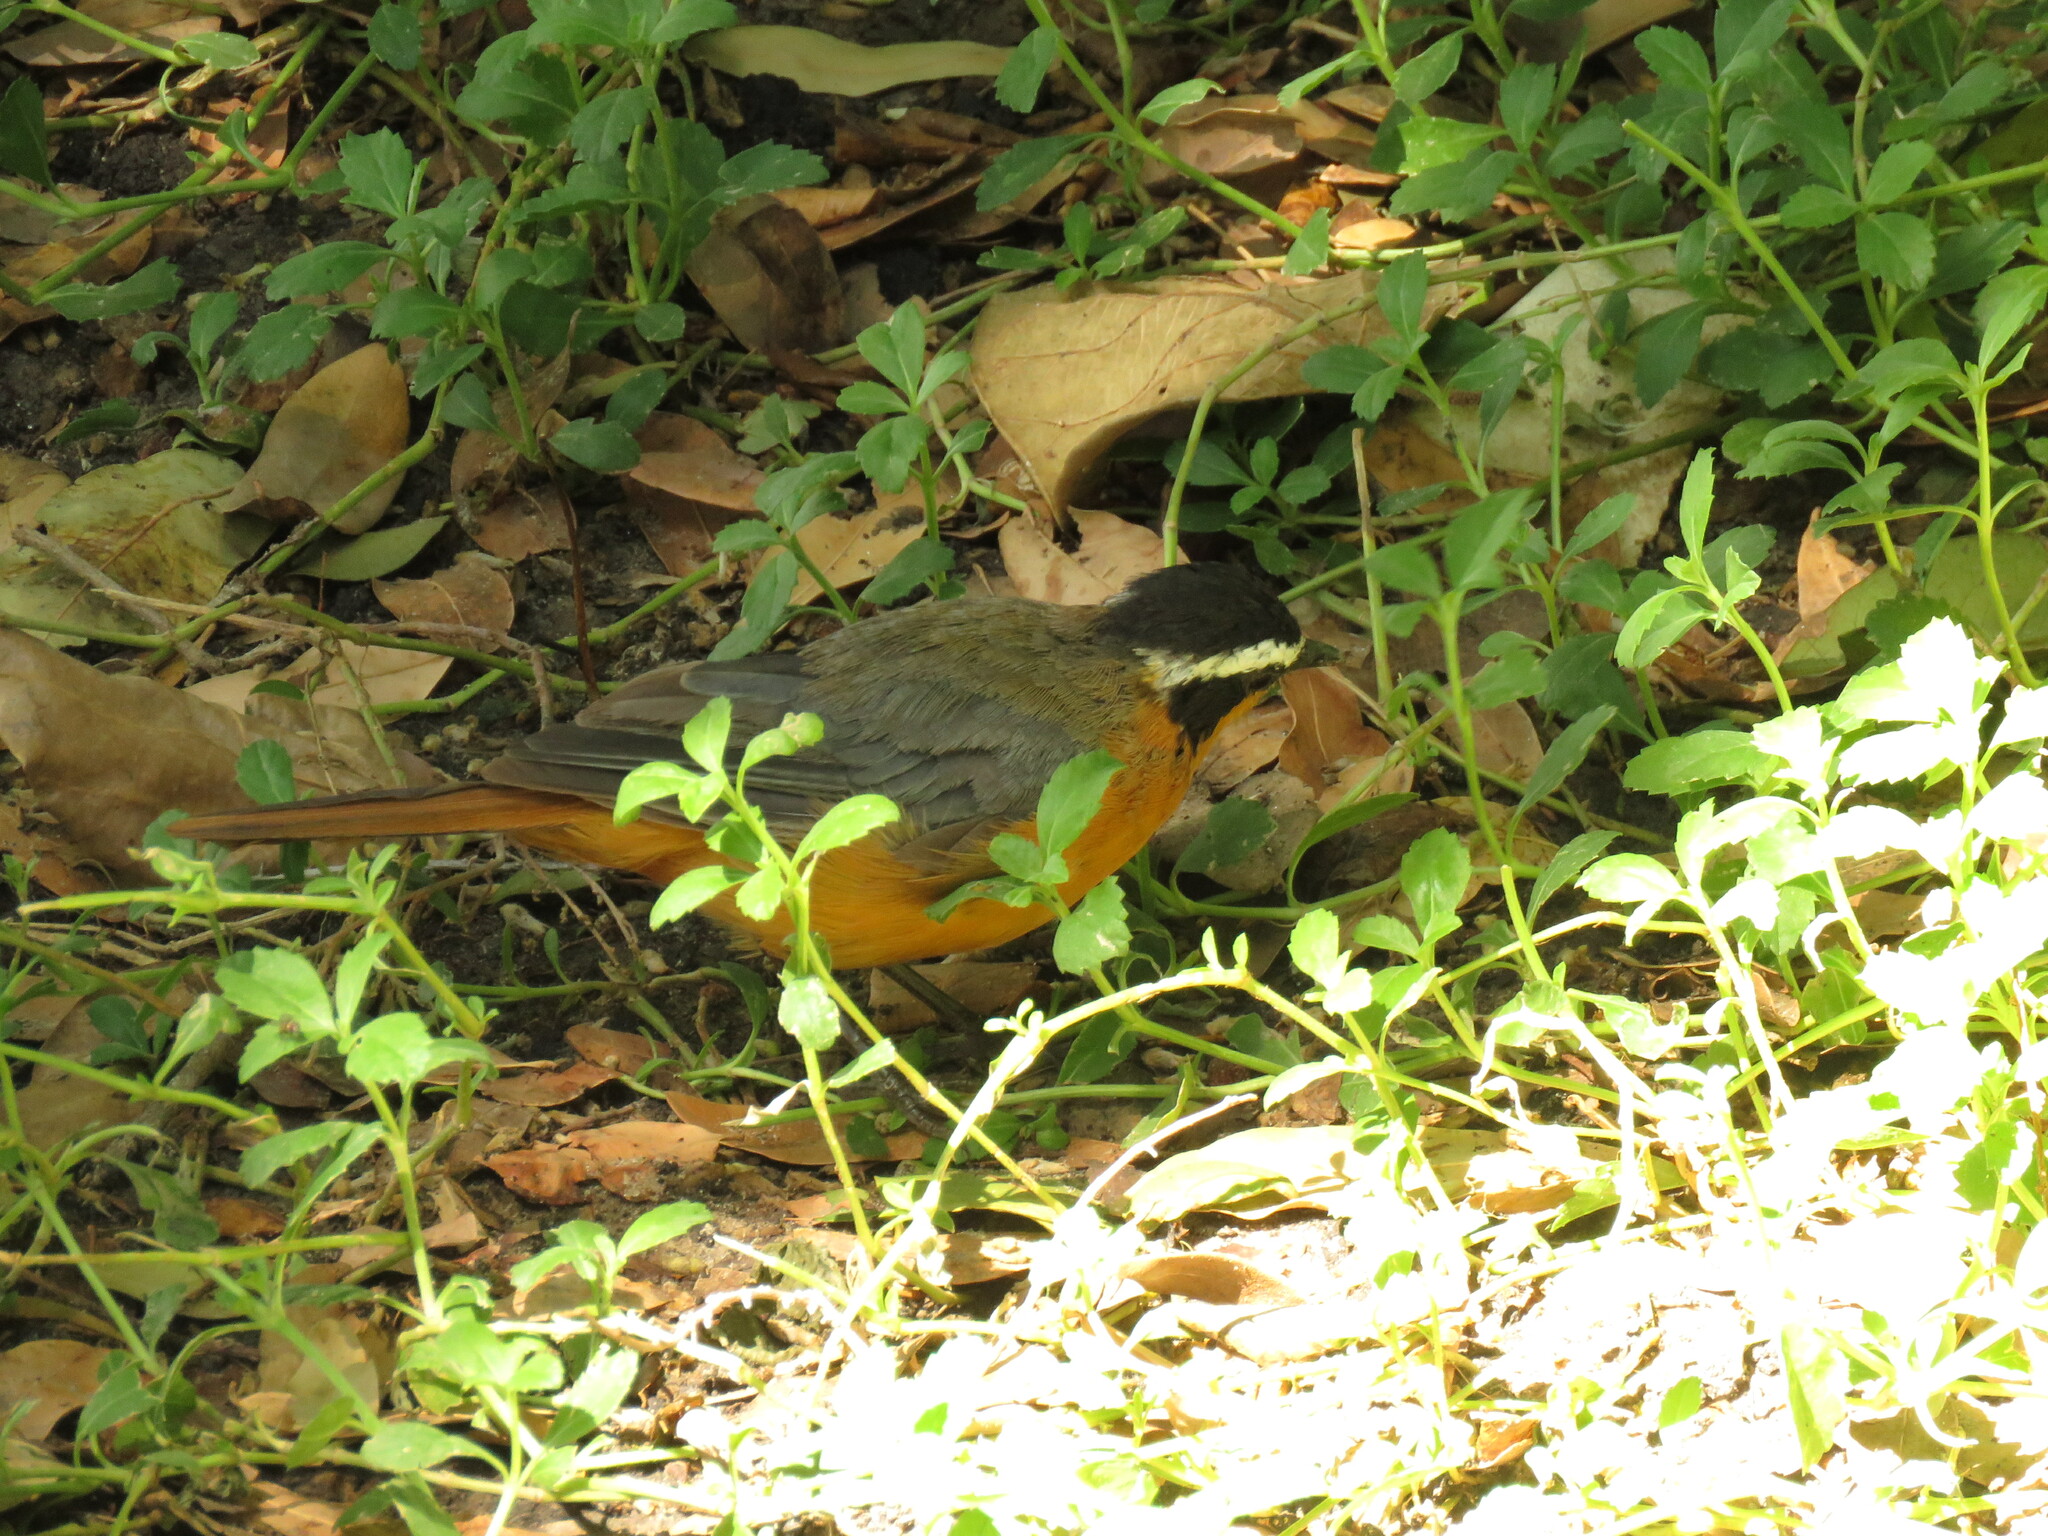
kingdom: Animalia
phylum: Chordata
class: Aves
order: Passeriformes
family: Muscicapidae
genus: Cossypha
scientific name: Cossypha heuglini
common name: White-browed robin-chat
